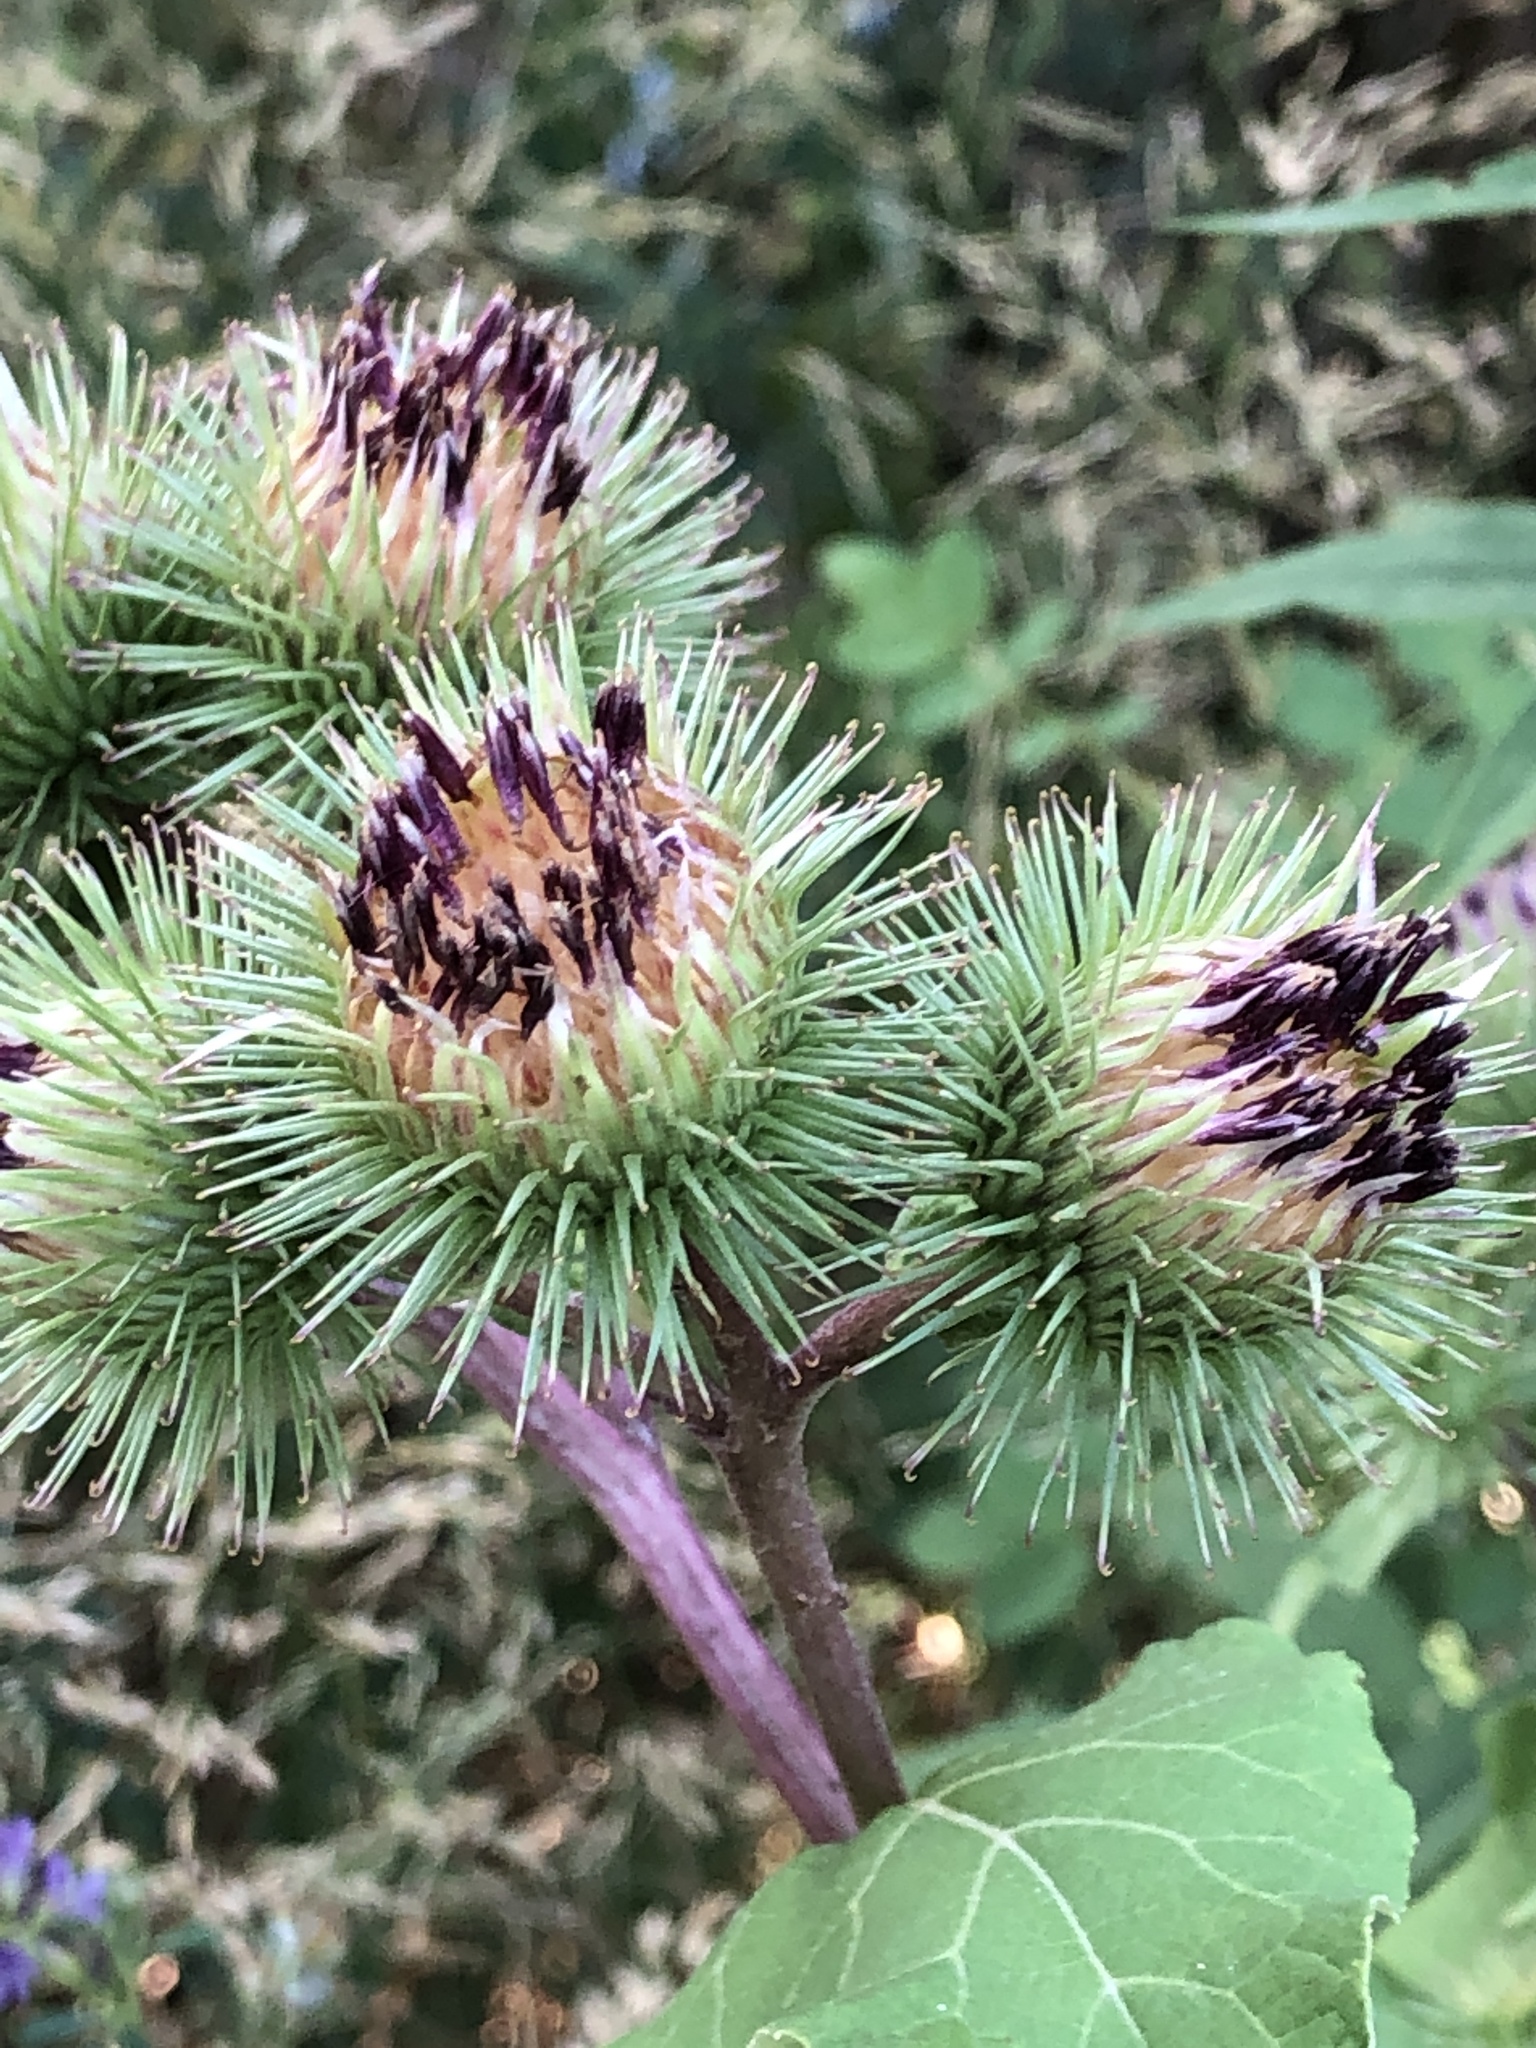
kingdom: Plantae
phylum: Tracheophyta
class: Magnoliopsida
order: Asterales
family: Asteraceae
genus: Arctium
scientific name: Arctium lappa
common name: Greater burdock
